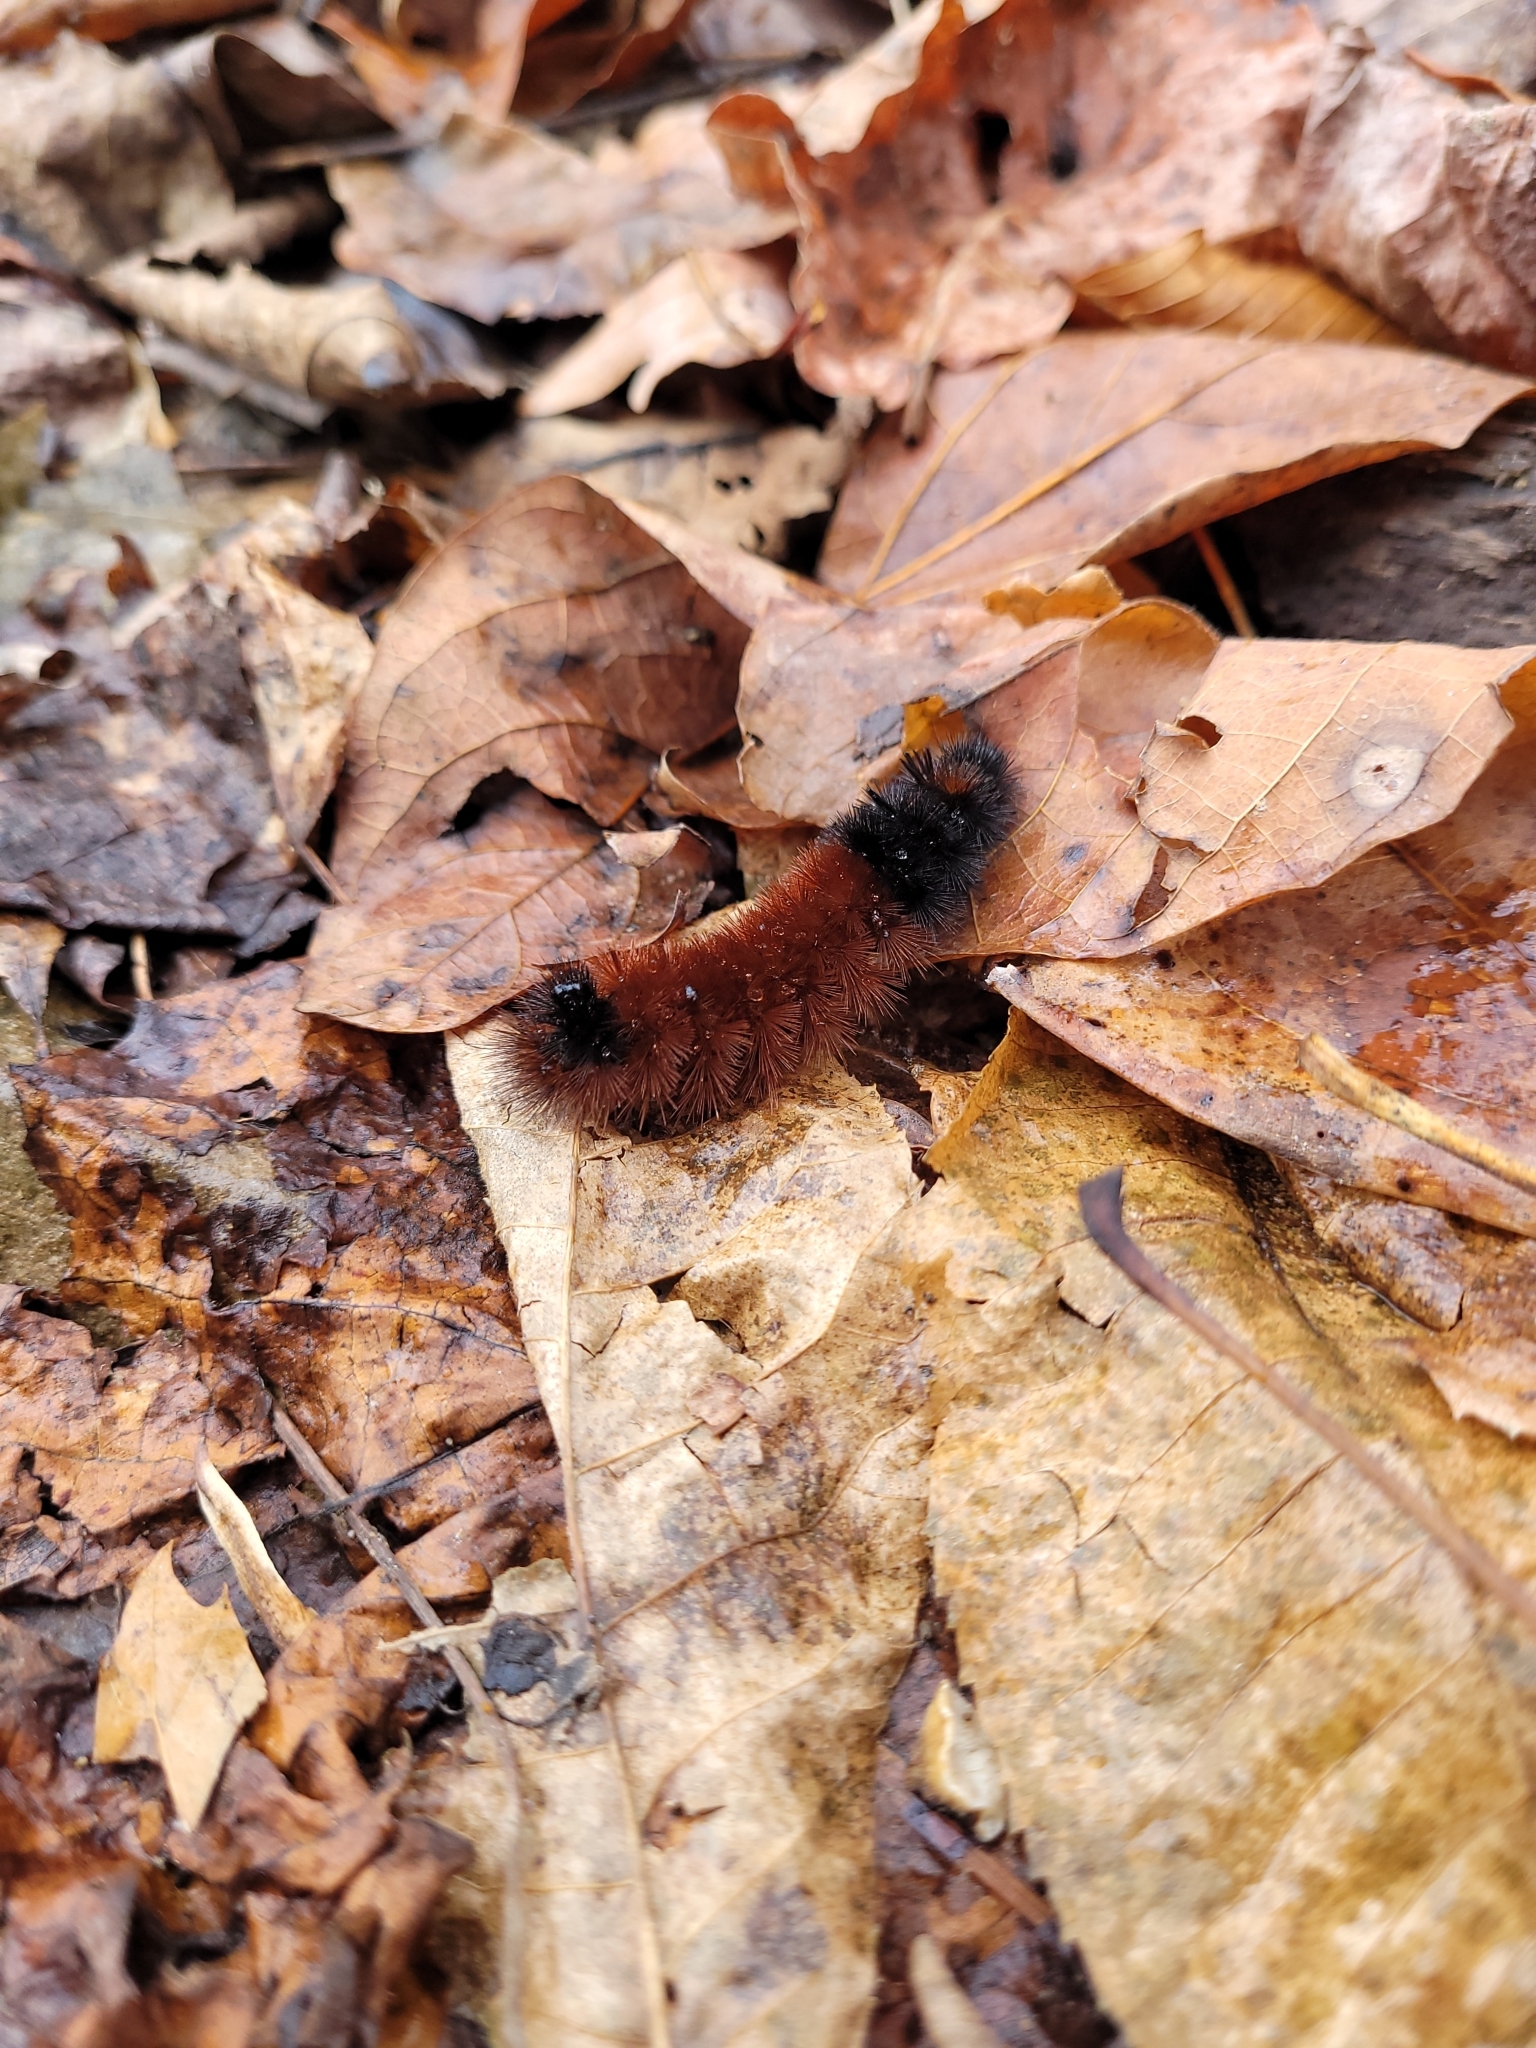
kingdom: Animalia
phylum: Arthropoda
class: Insecta
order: Lepidoptera
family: Erebidae
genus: Pyrrharctia
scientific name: Pyrrharctia isabella
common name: Isabella tiger moth
